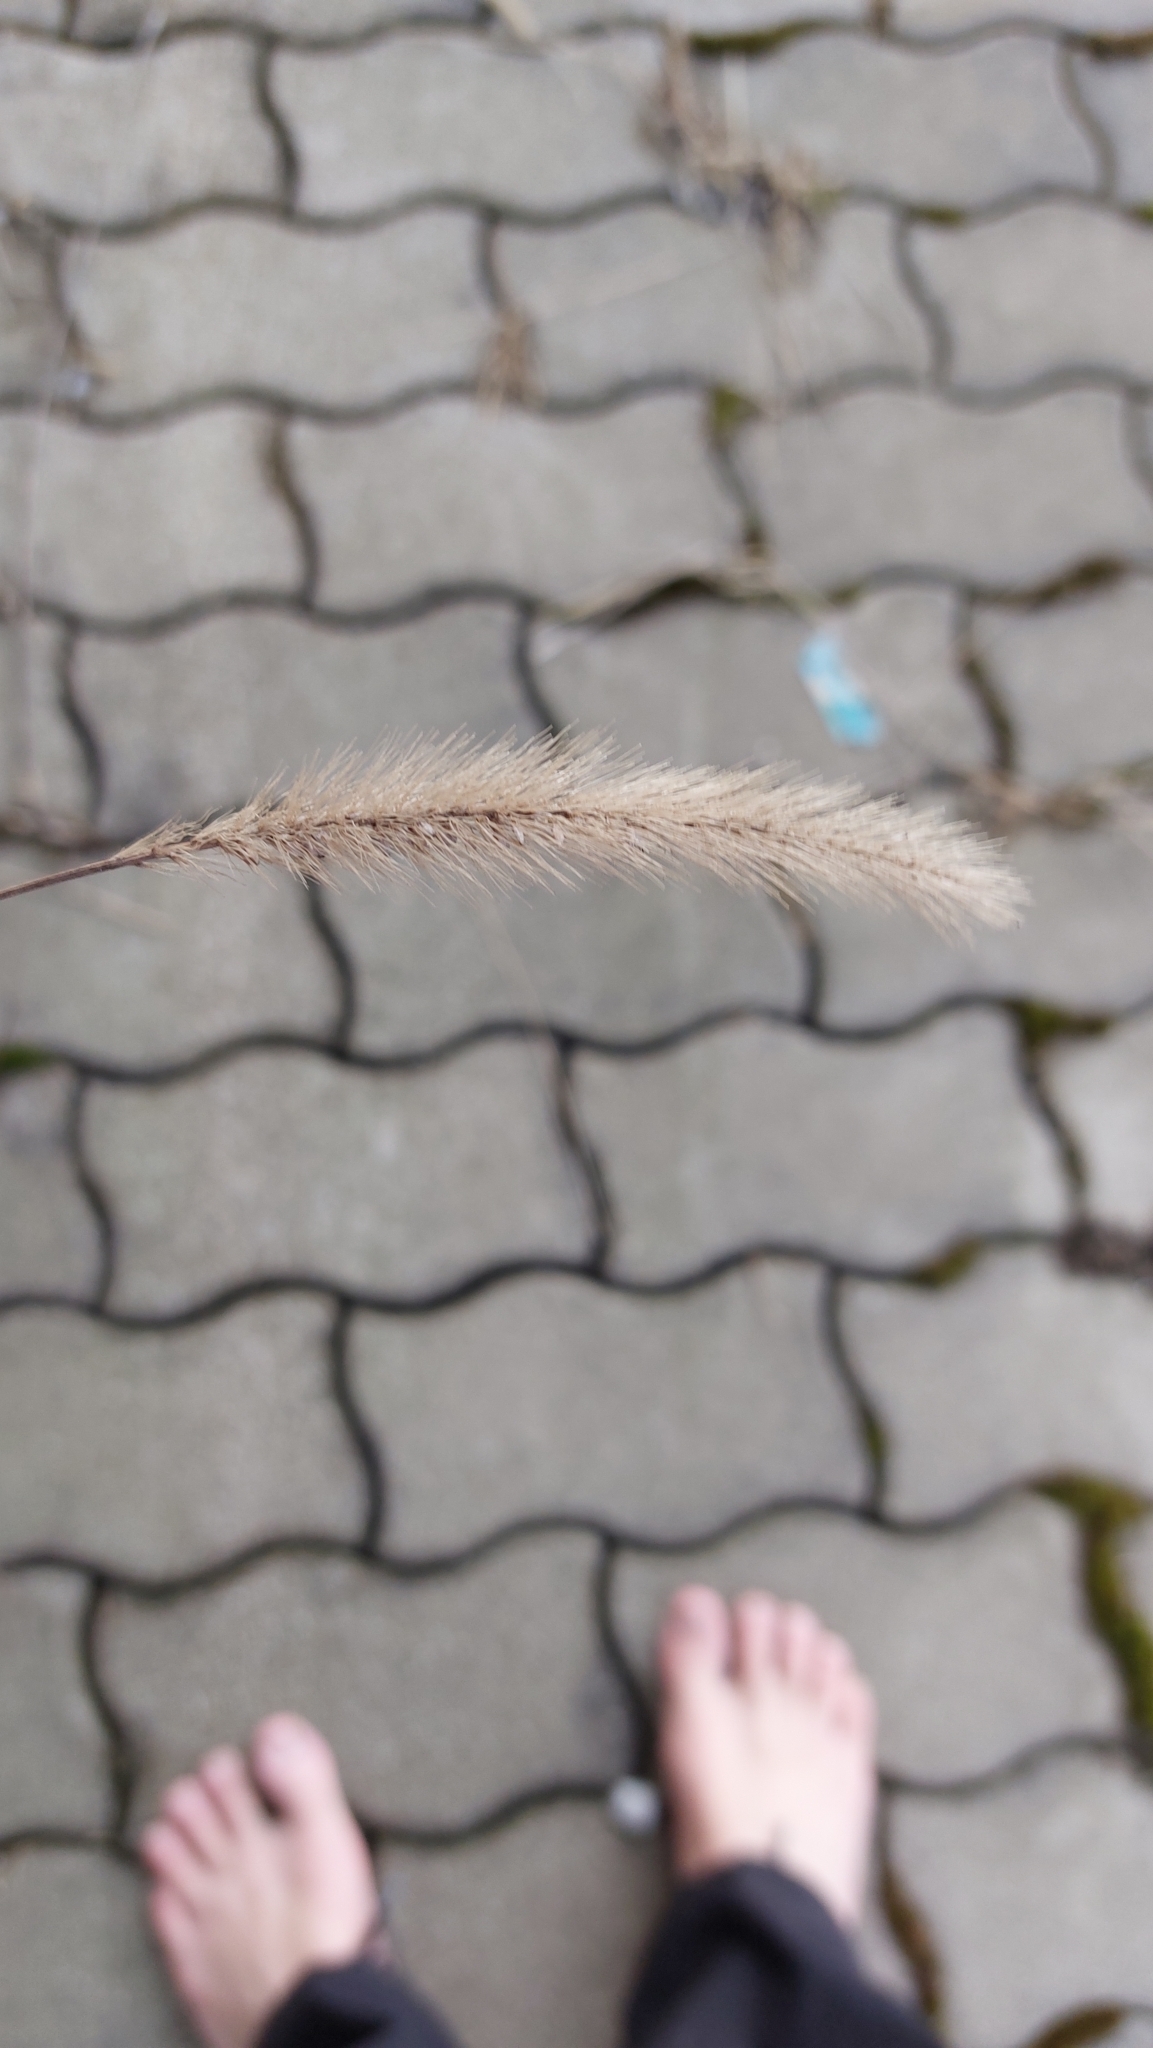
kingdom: Plantae
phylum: Tracheophyta
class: Liliopsida
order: Poales
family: Poaceae
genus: Setaria
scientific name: Setaria viridis
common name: Green bristlegrass
